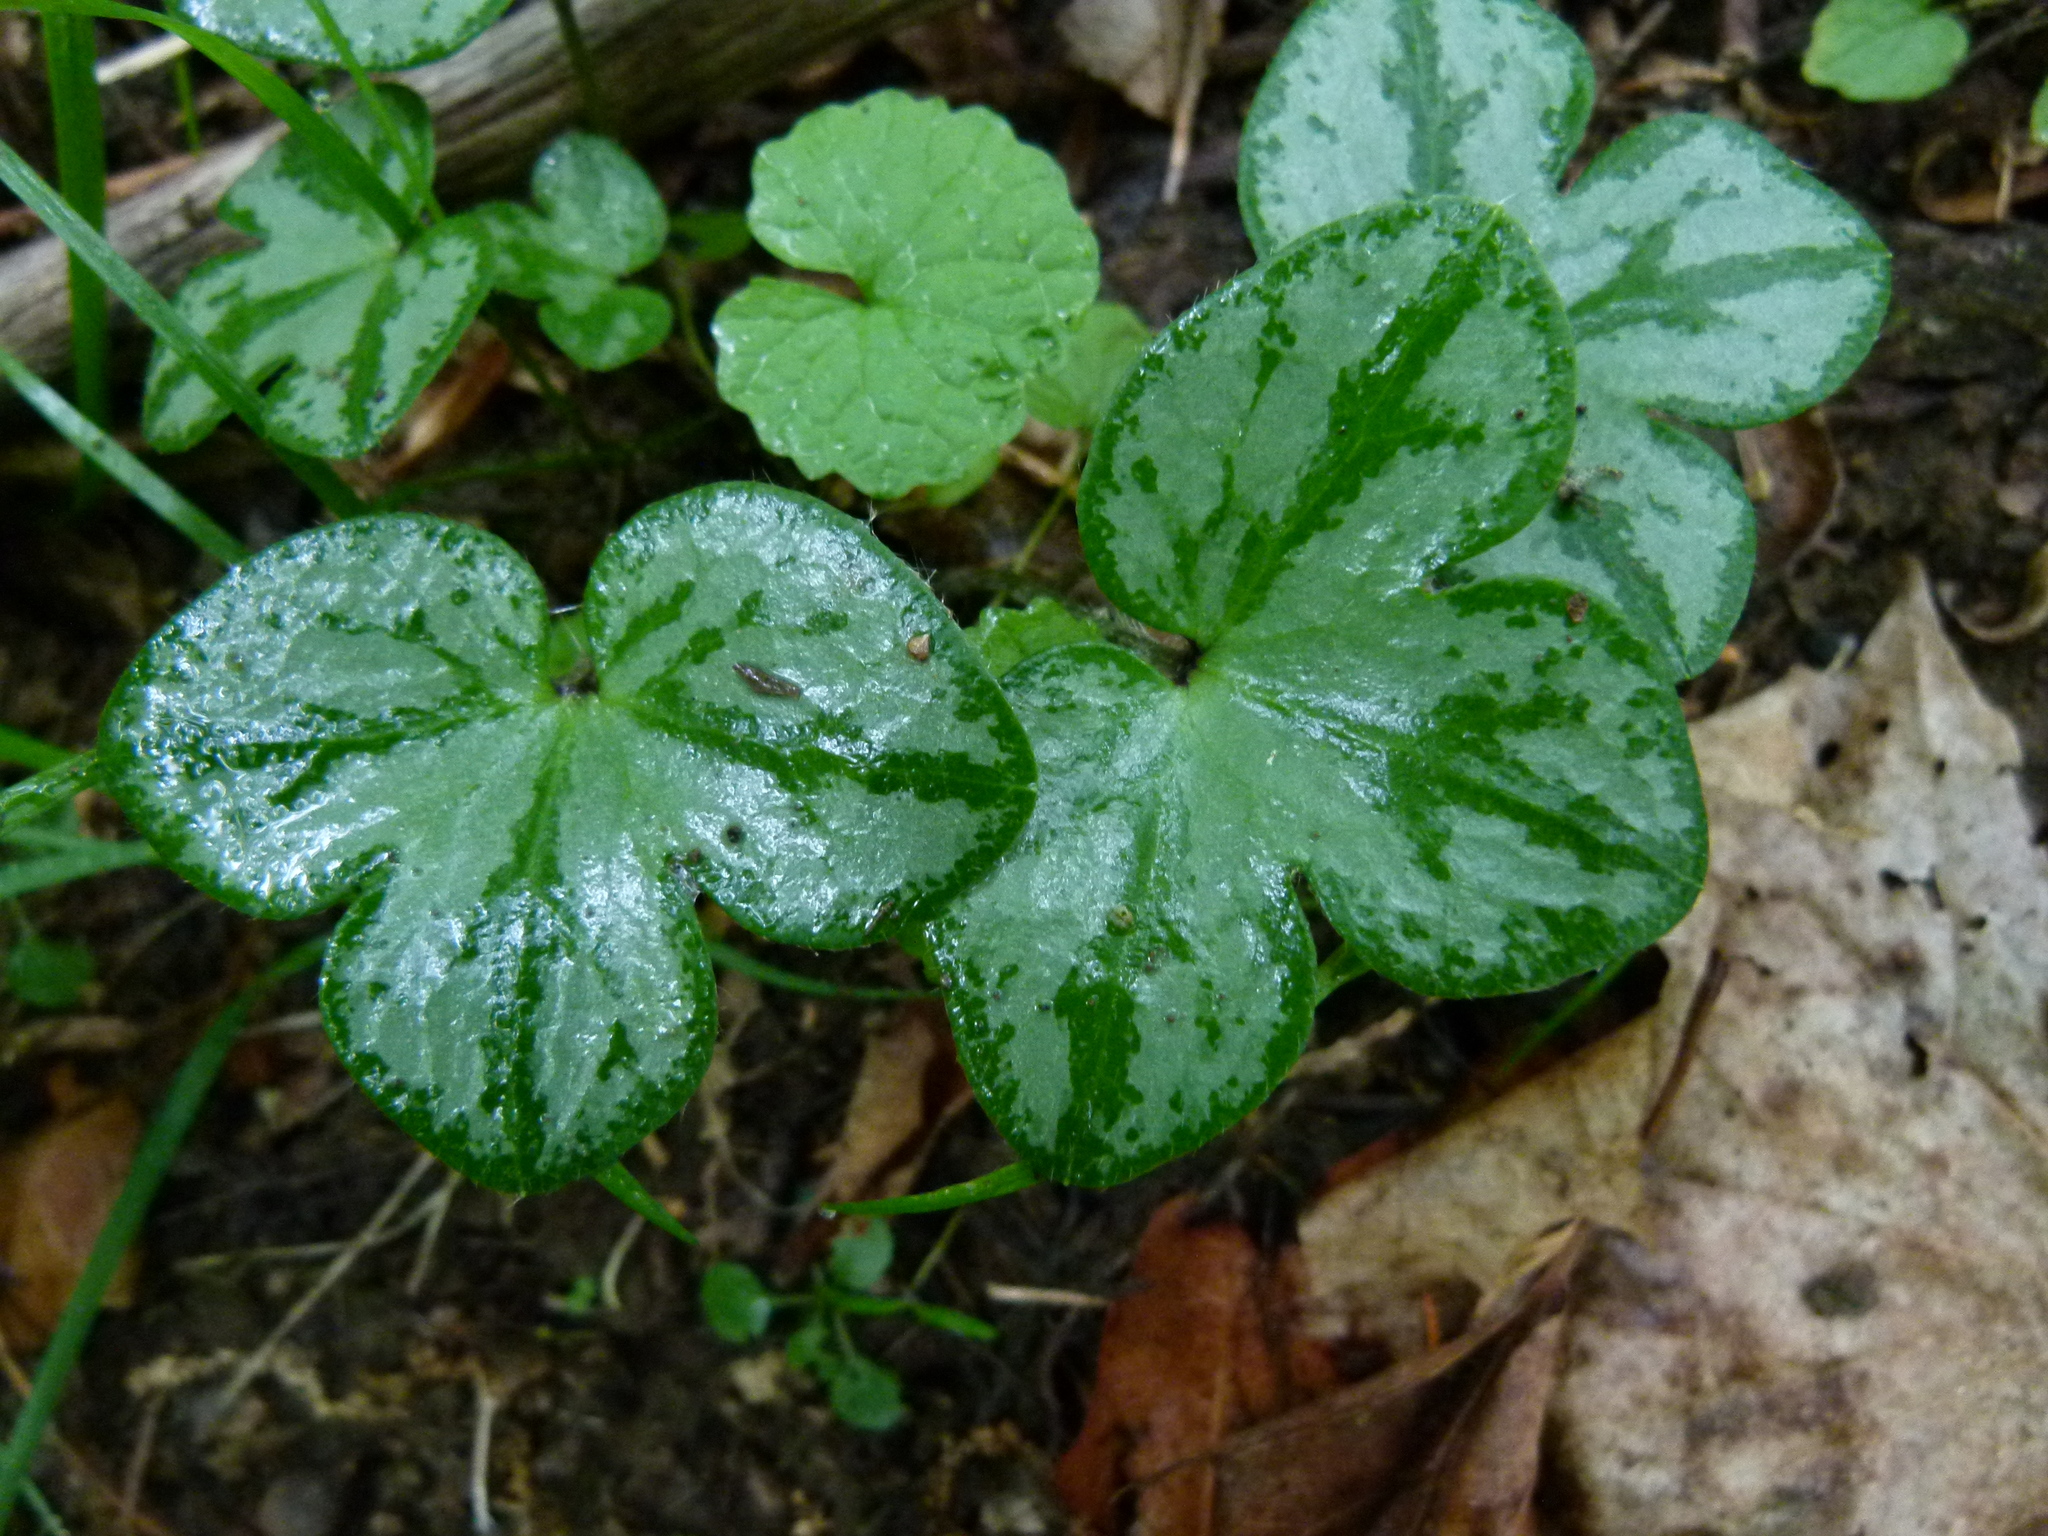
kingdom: Plantae
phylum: Tracheophyta
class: Magnoliopsida
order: Ranunculales
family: Ranunculaceae
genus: Hepatica
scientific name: Hepatica americana
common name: American hepatica
